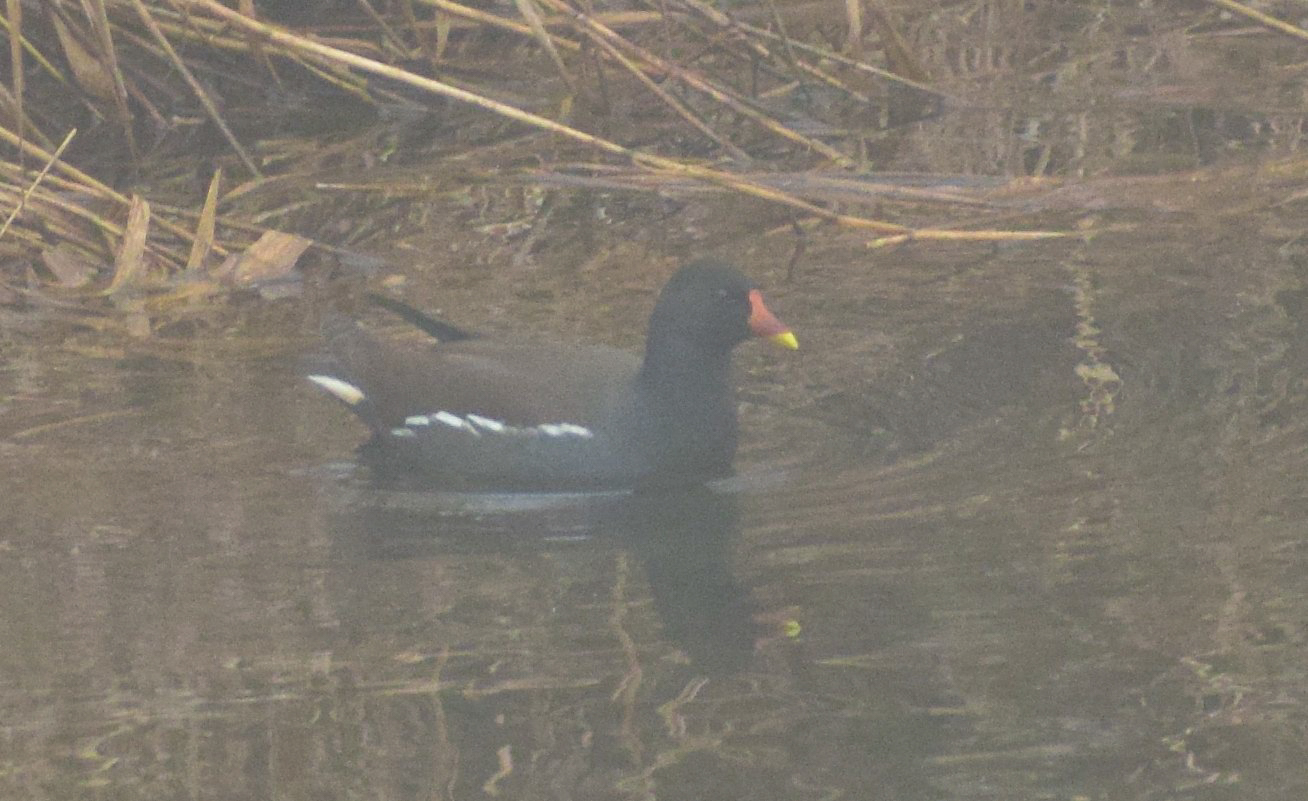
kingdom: Animalia
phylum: Chordata
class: Aves
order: Gruiformes
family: Rallidae
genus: Gallinula
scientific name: Gallinula chloropus
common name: Common moorhen
